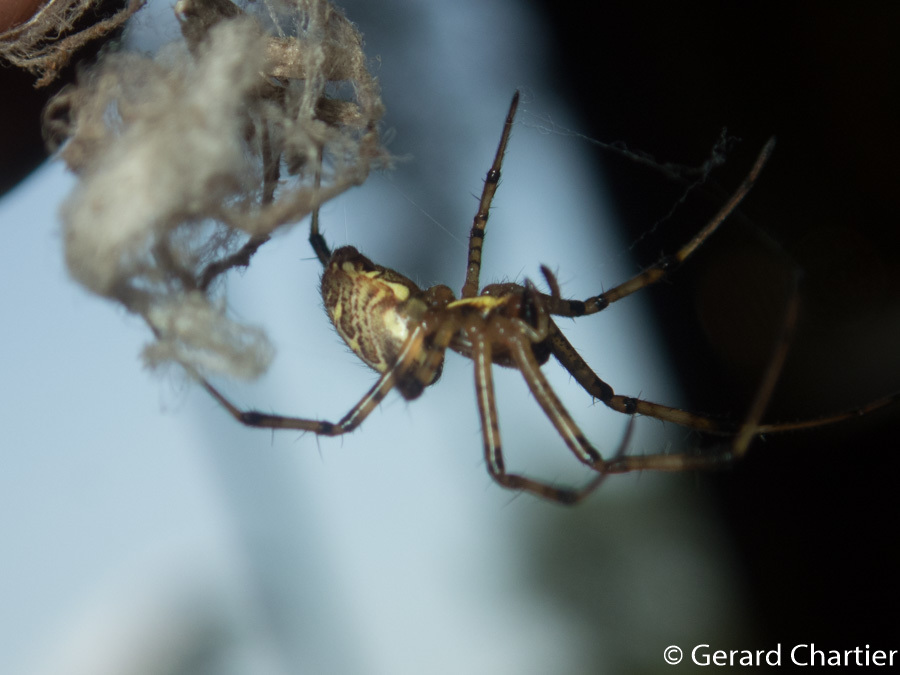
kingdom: Animalia
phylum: Arthropoda
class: Arachnida
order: Araneae
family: Araneidae
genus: Nephilengys
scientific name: Nephilengys malabarensis
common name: Asian hermit spider
